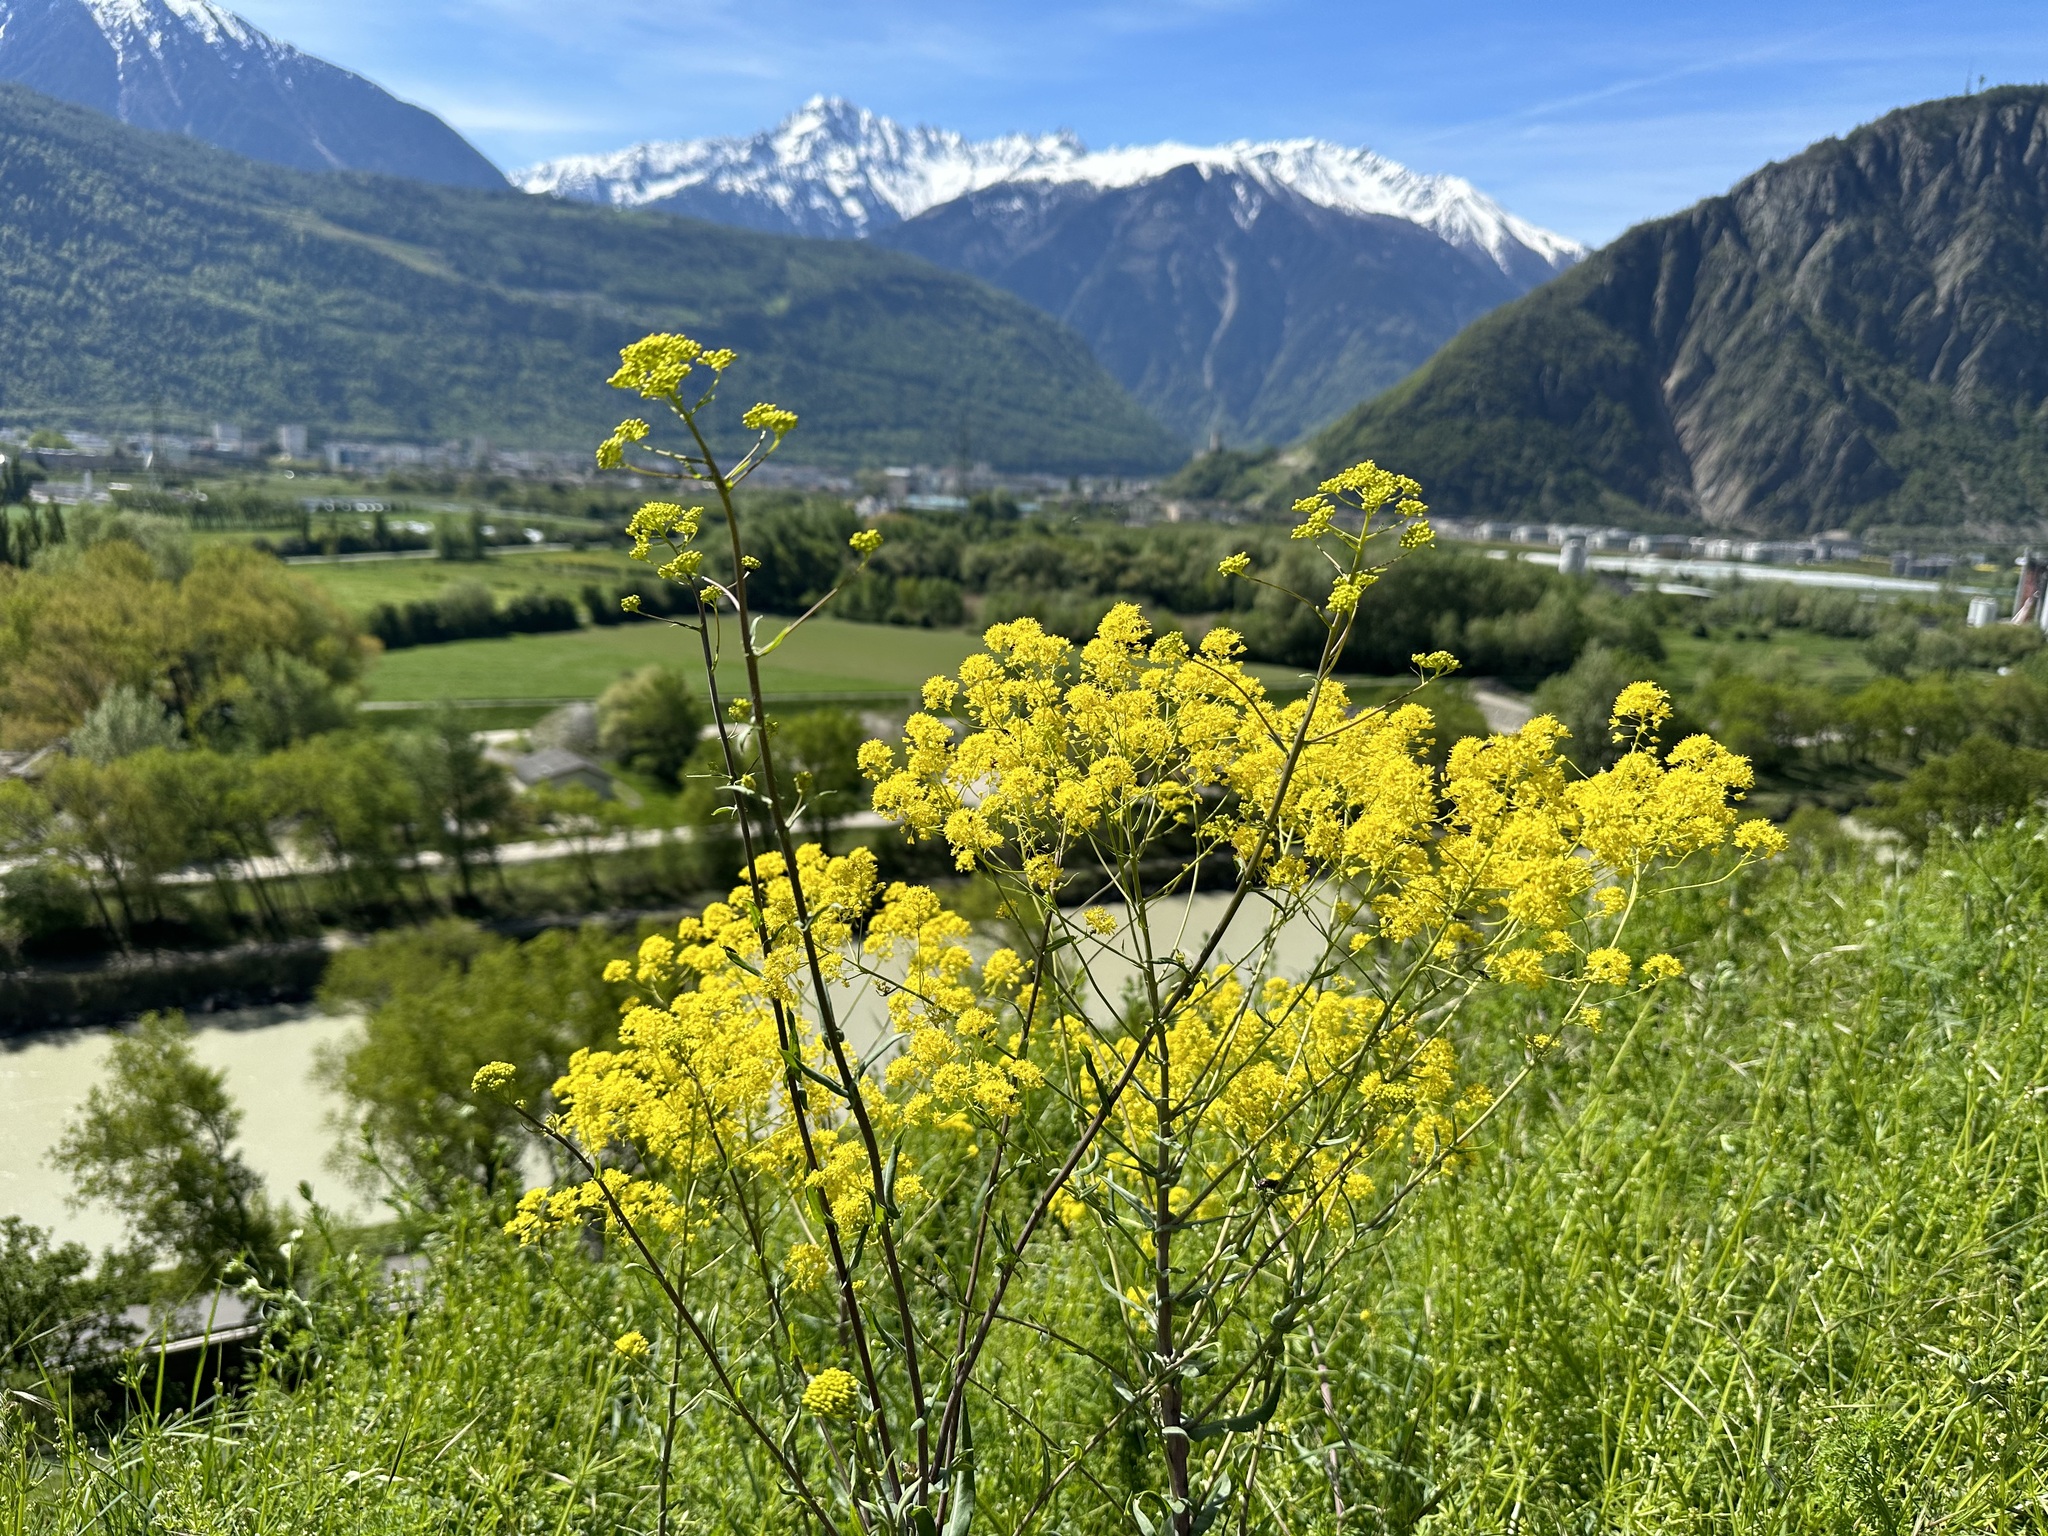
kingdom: Plantae
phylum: Tracheophyta
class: Magnoliopsida
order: Brassicales
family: Brassicaceae
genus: Isatis
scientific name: Isatis tinctoria
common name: Woad
